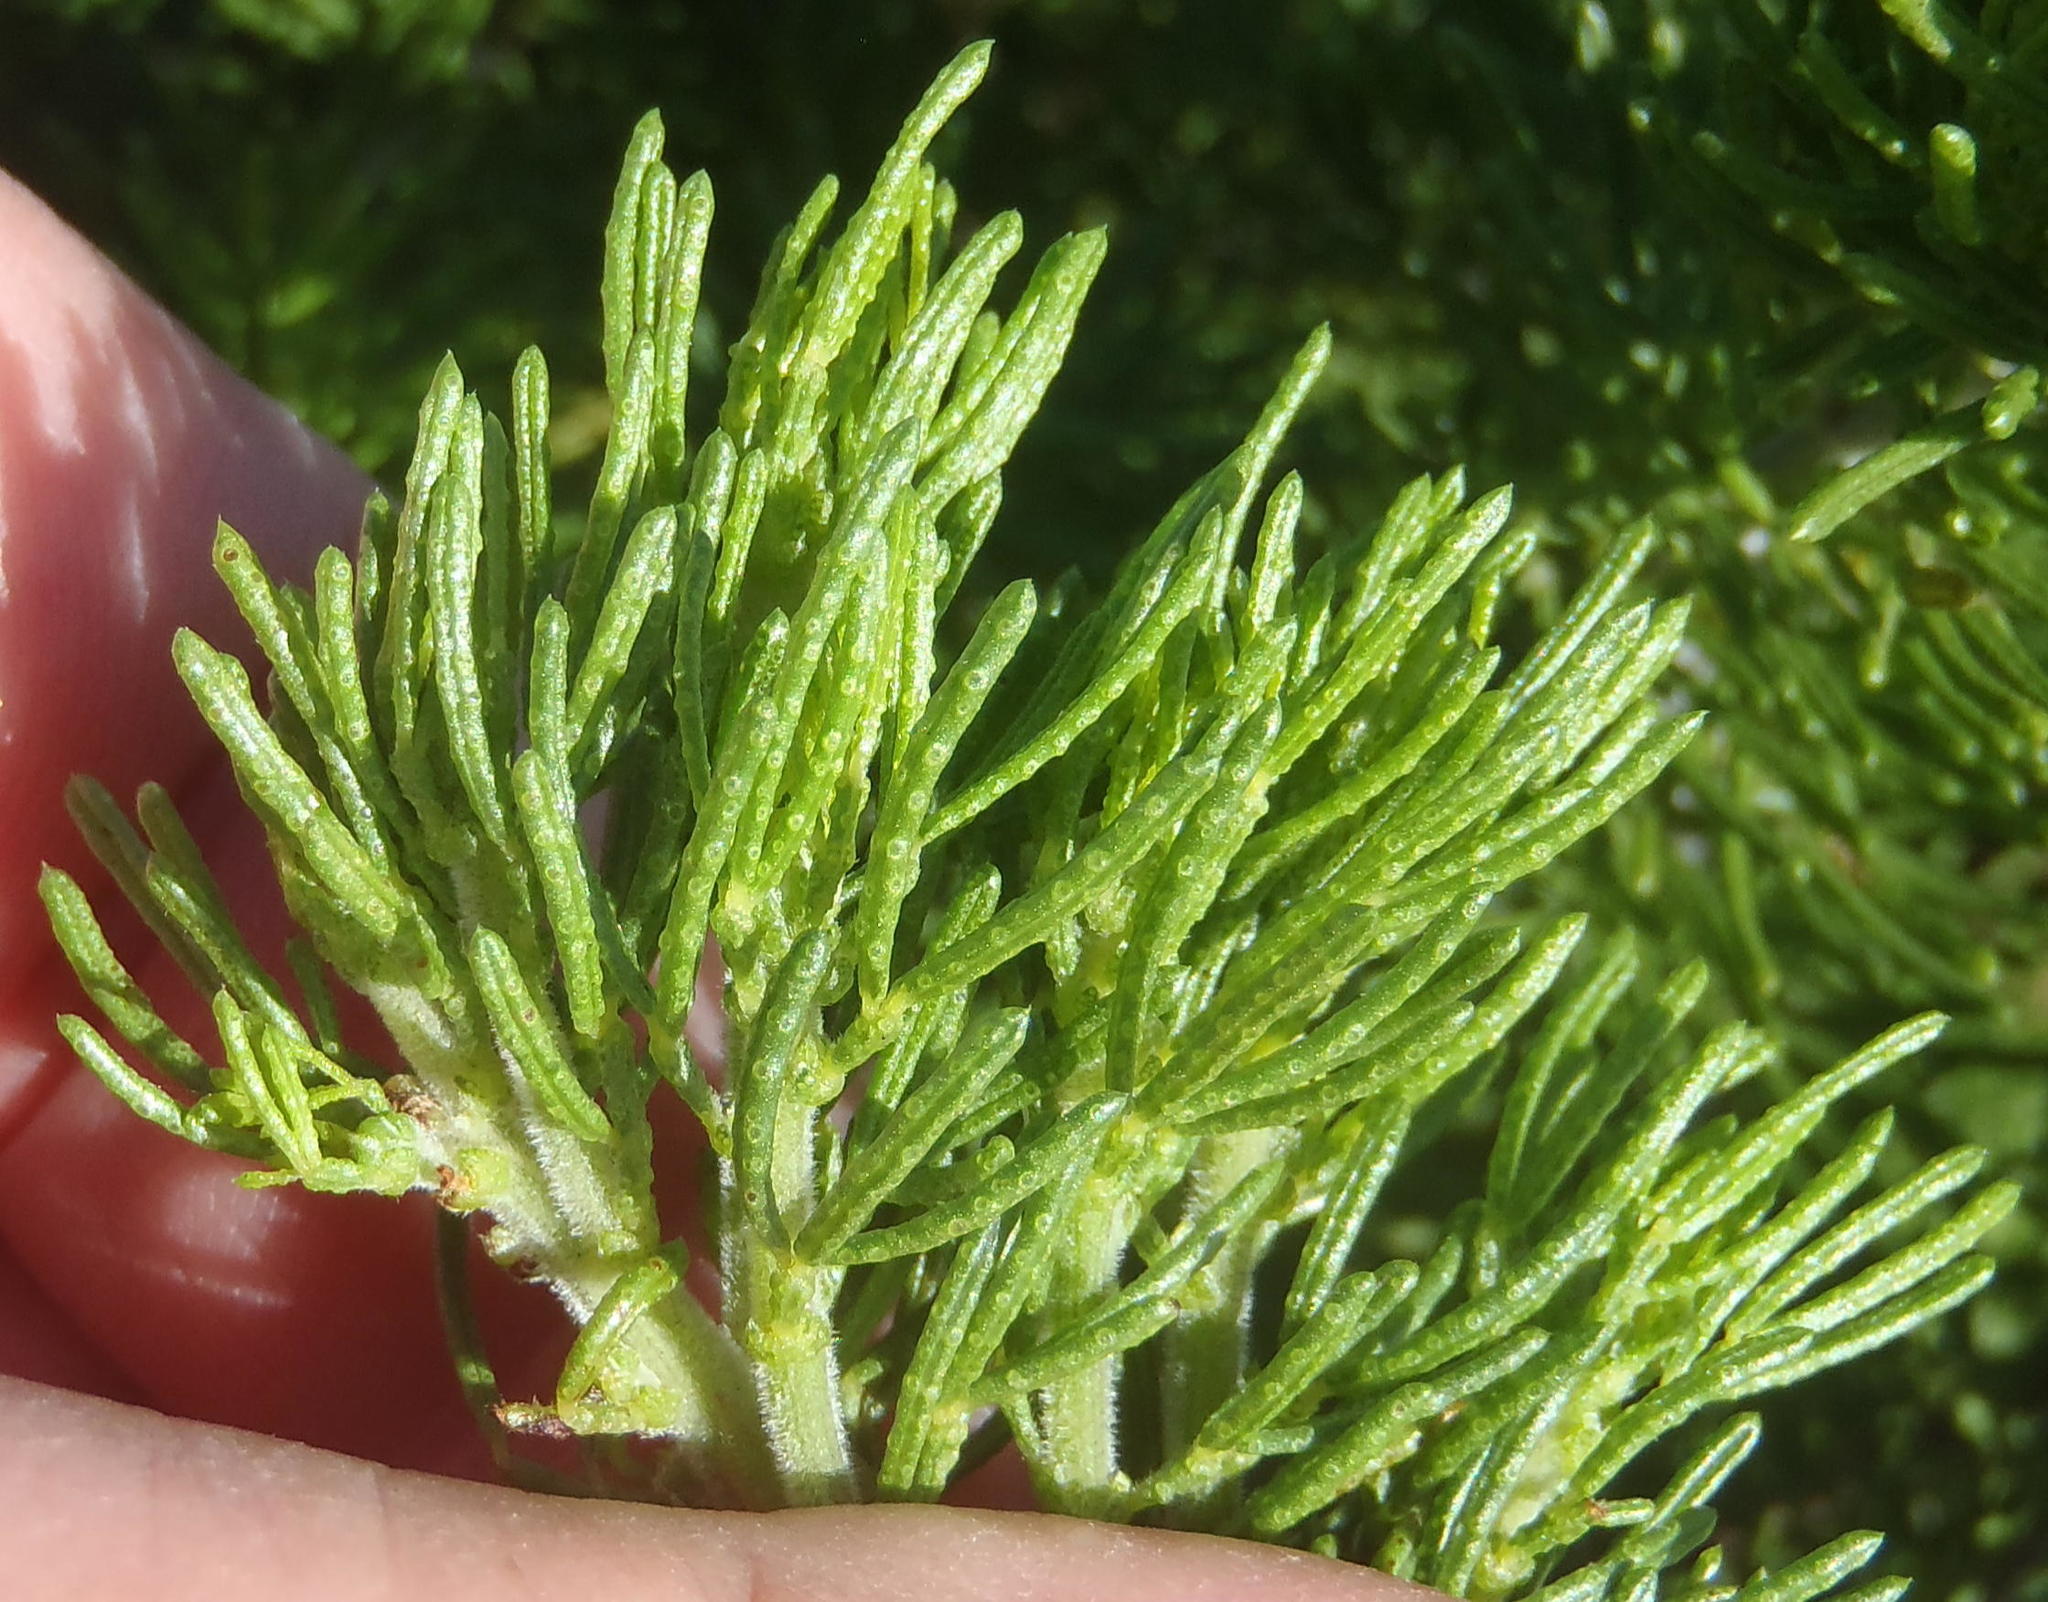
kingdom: Plantae
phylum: Tracheophyta
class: Magnoliopsida
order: Fabales
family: Fabaceae
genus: Psoralea
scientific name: Psoralea vanberkelae
